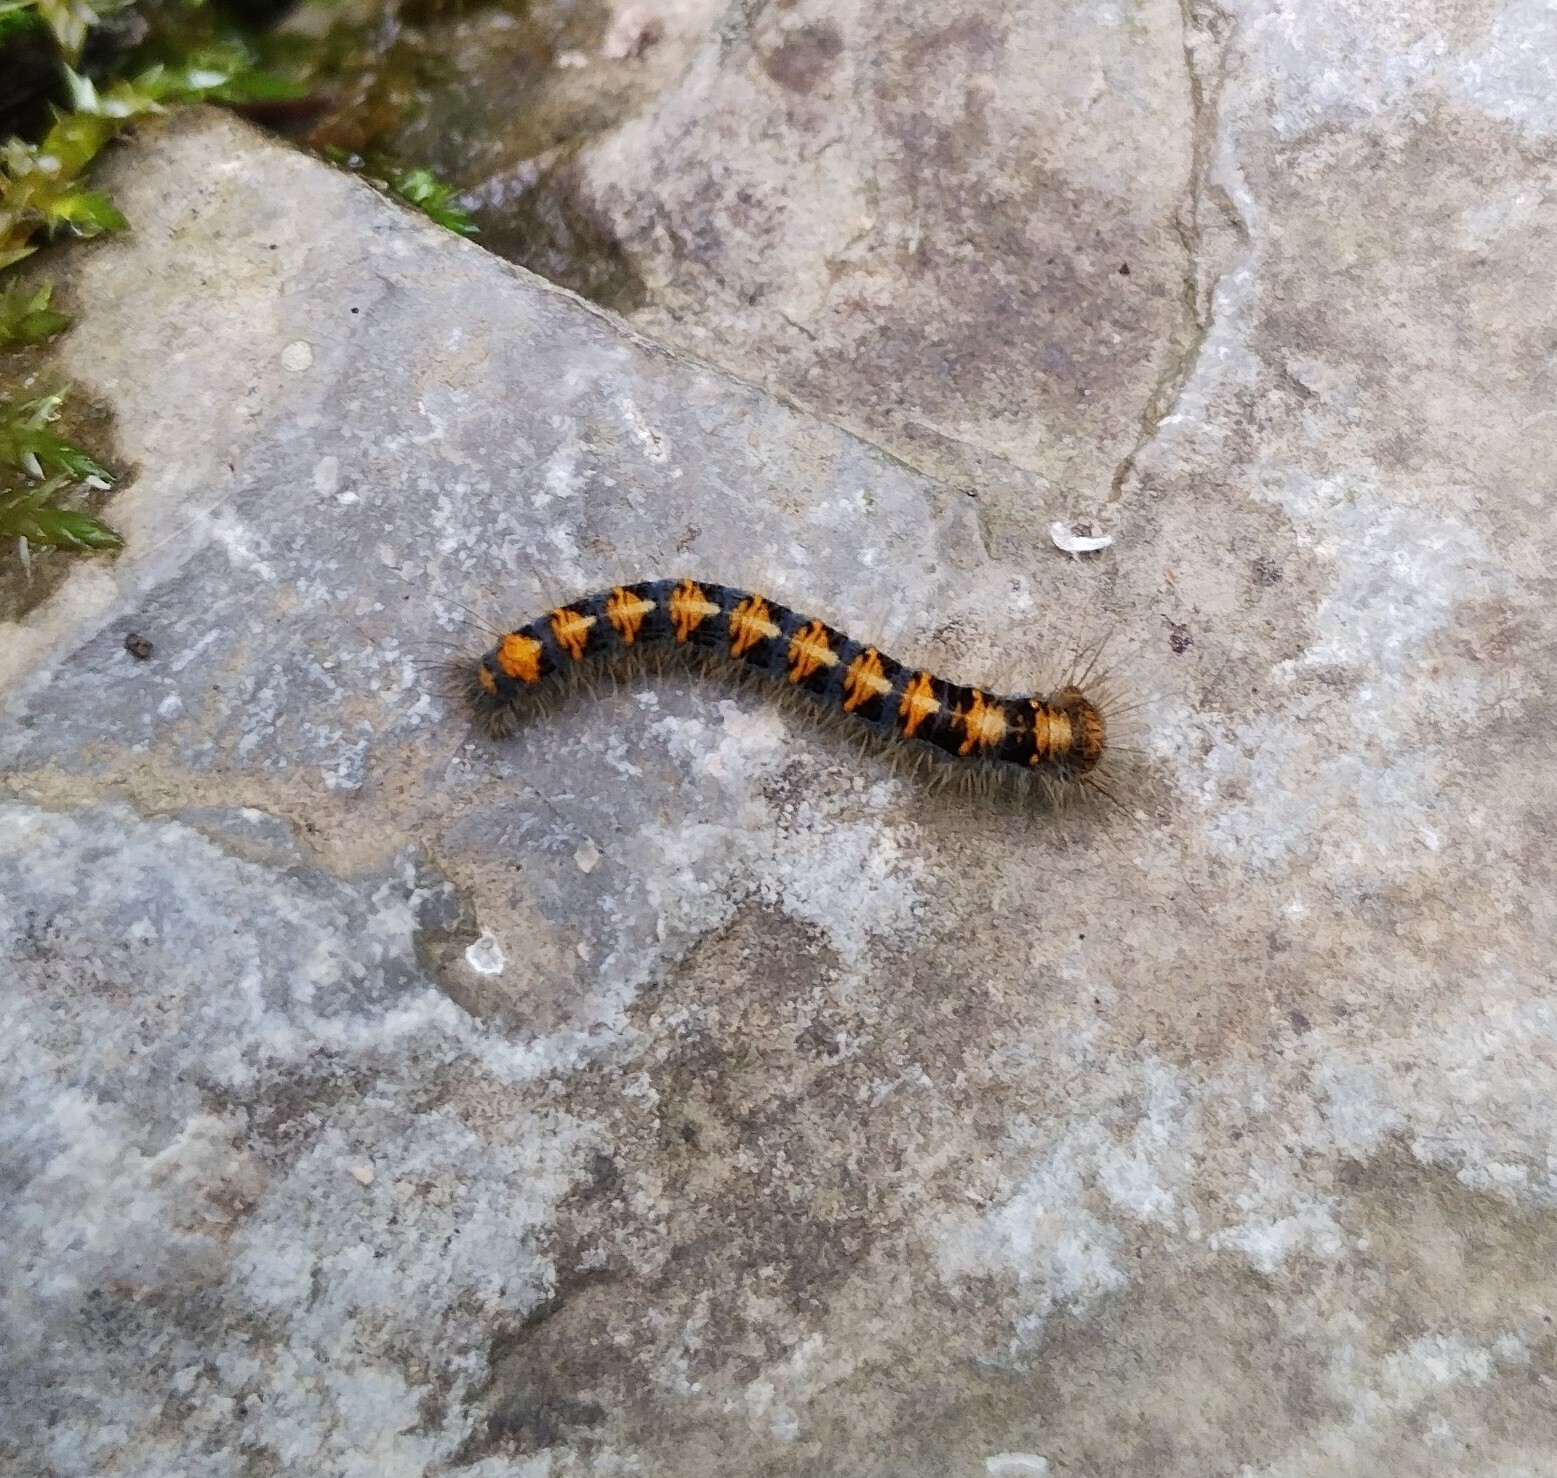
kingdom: Animalia
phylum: Arthropoda
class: Insecta
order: Lepidoptera
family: Lasiocampidae
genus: Lasiocampa
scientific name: Lasiocampa quercus
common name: Oak eggar
